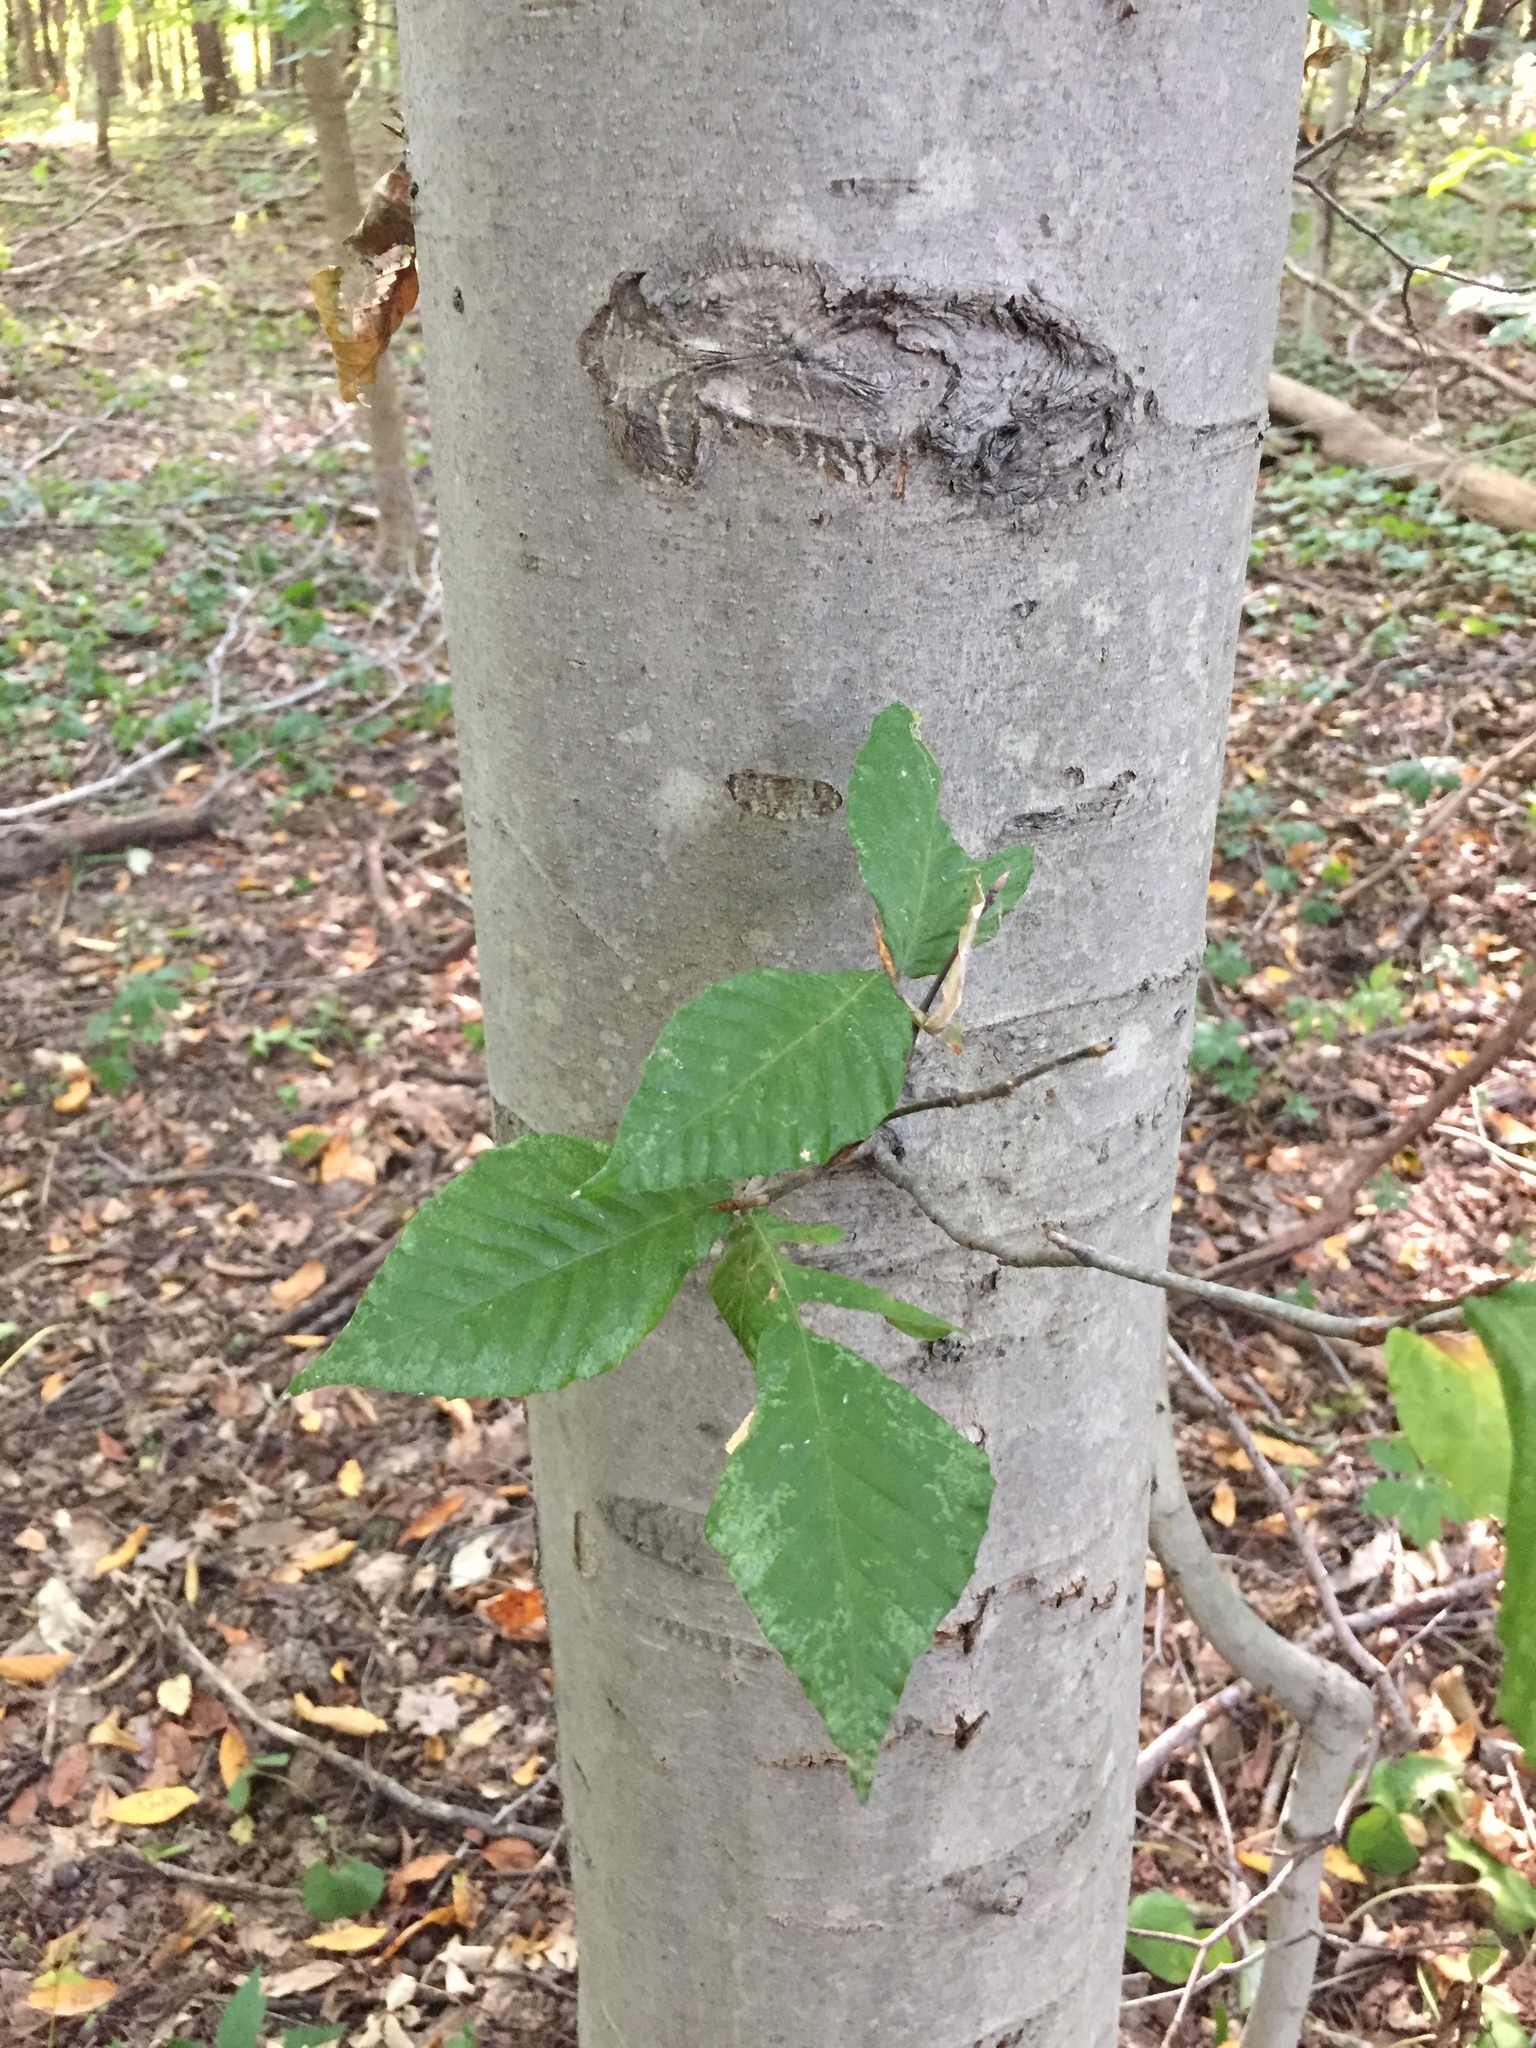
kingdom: Plantae
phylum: Tracheophyta
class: Magnoliopsida
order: Fagales
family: Fagaceae
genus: Fagus
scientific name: Fagus grandifolia
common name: American beech
